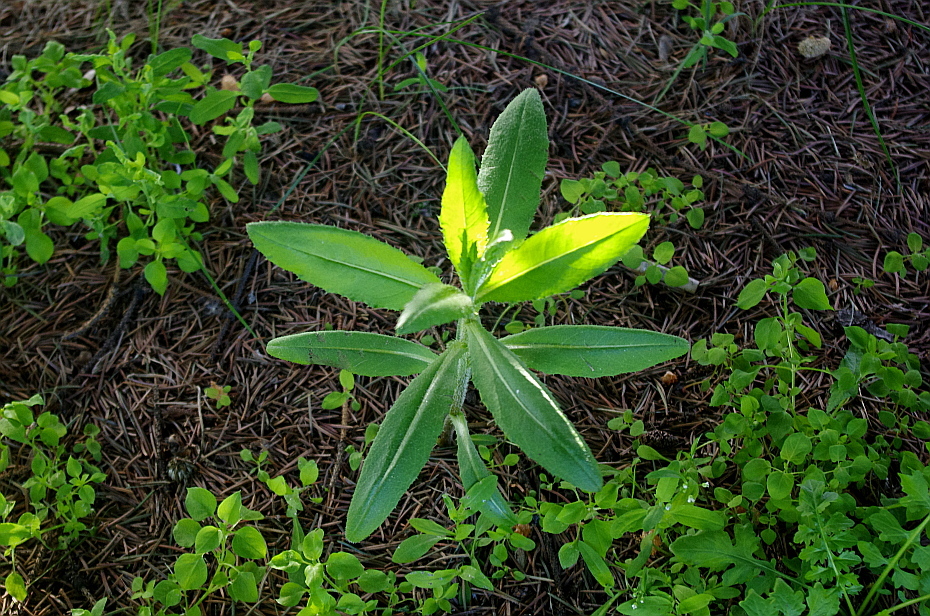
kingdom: Plantae
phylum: Tracheophyta
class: Magnoliopsida
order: Asterales
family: Asteraceae
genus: Cirsium
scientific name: Cirsium arvense
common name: Creeping thistle
